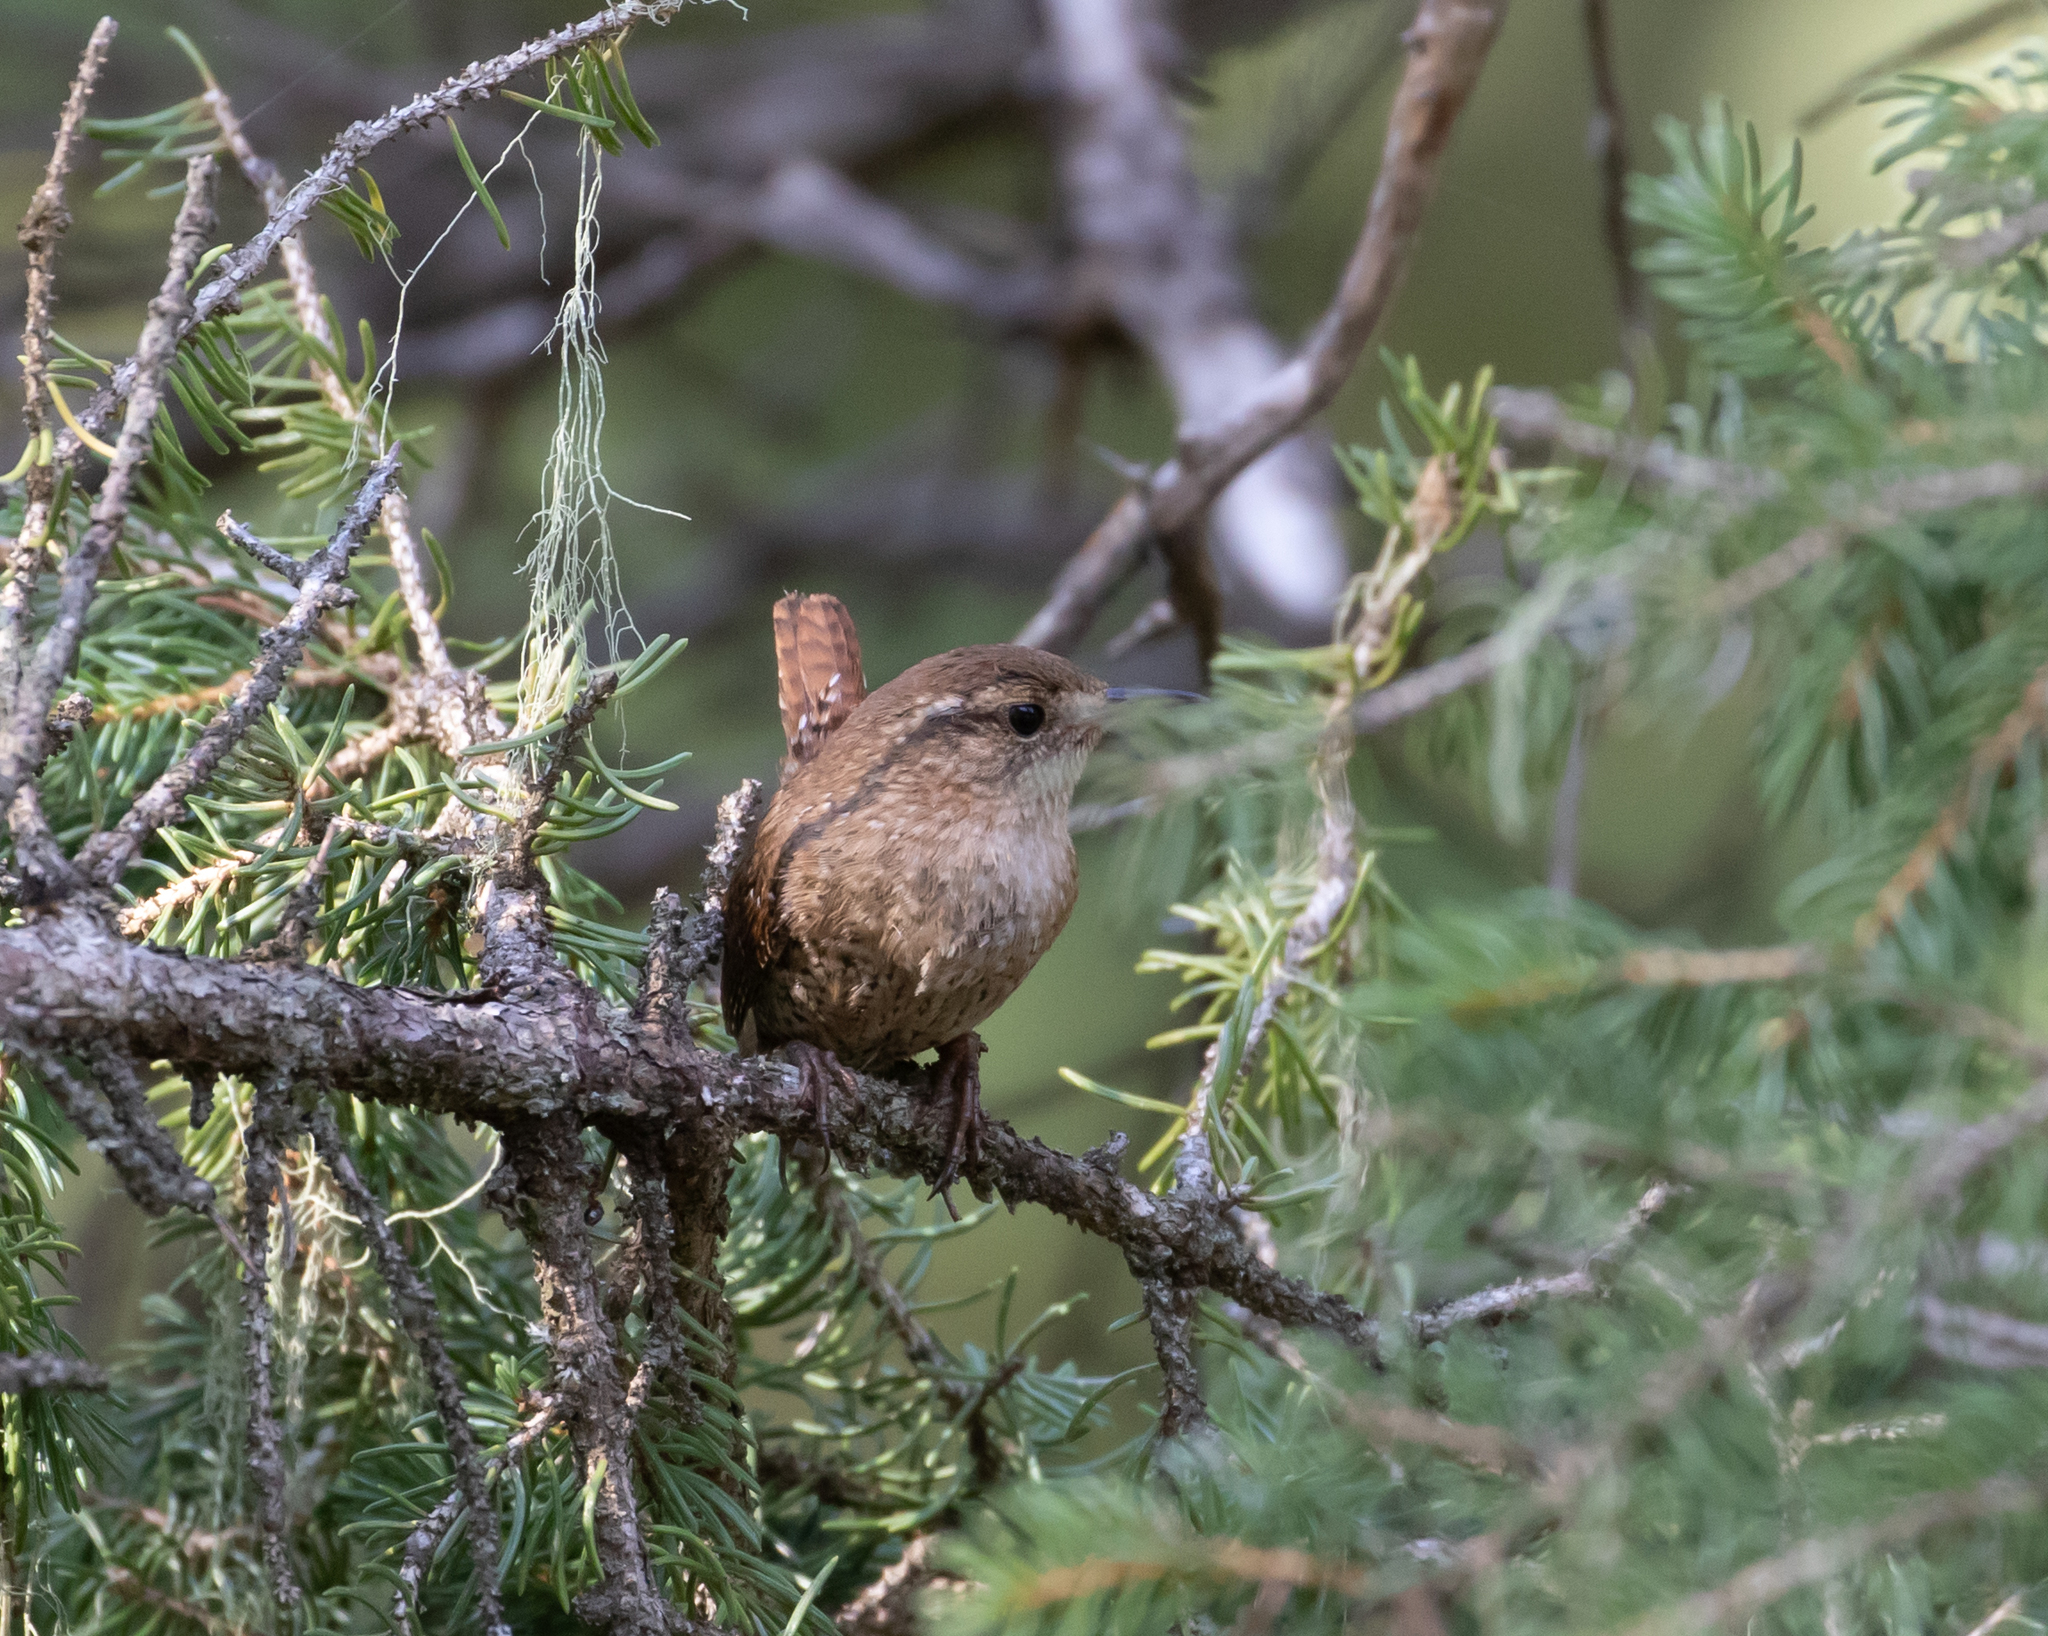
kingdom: Animalia
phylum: Chordata
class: Aves
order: Passeriformes
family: Troglodytidae
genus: Troglodytes
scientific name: Troglodytes pacificus
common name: Pacific wren
